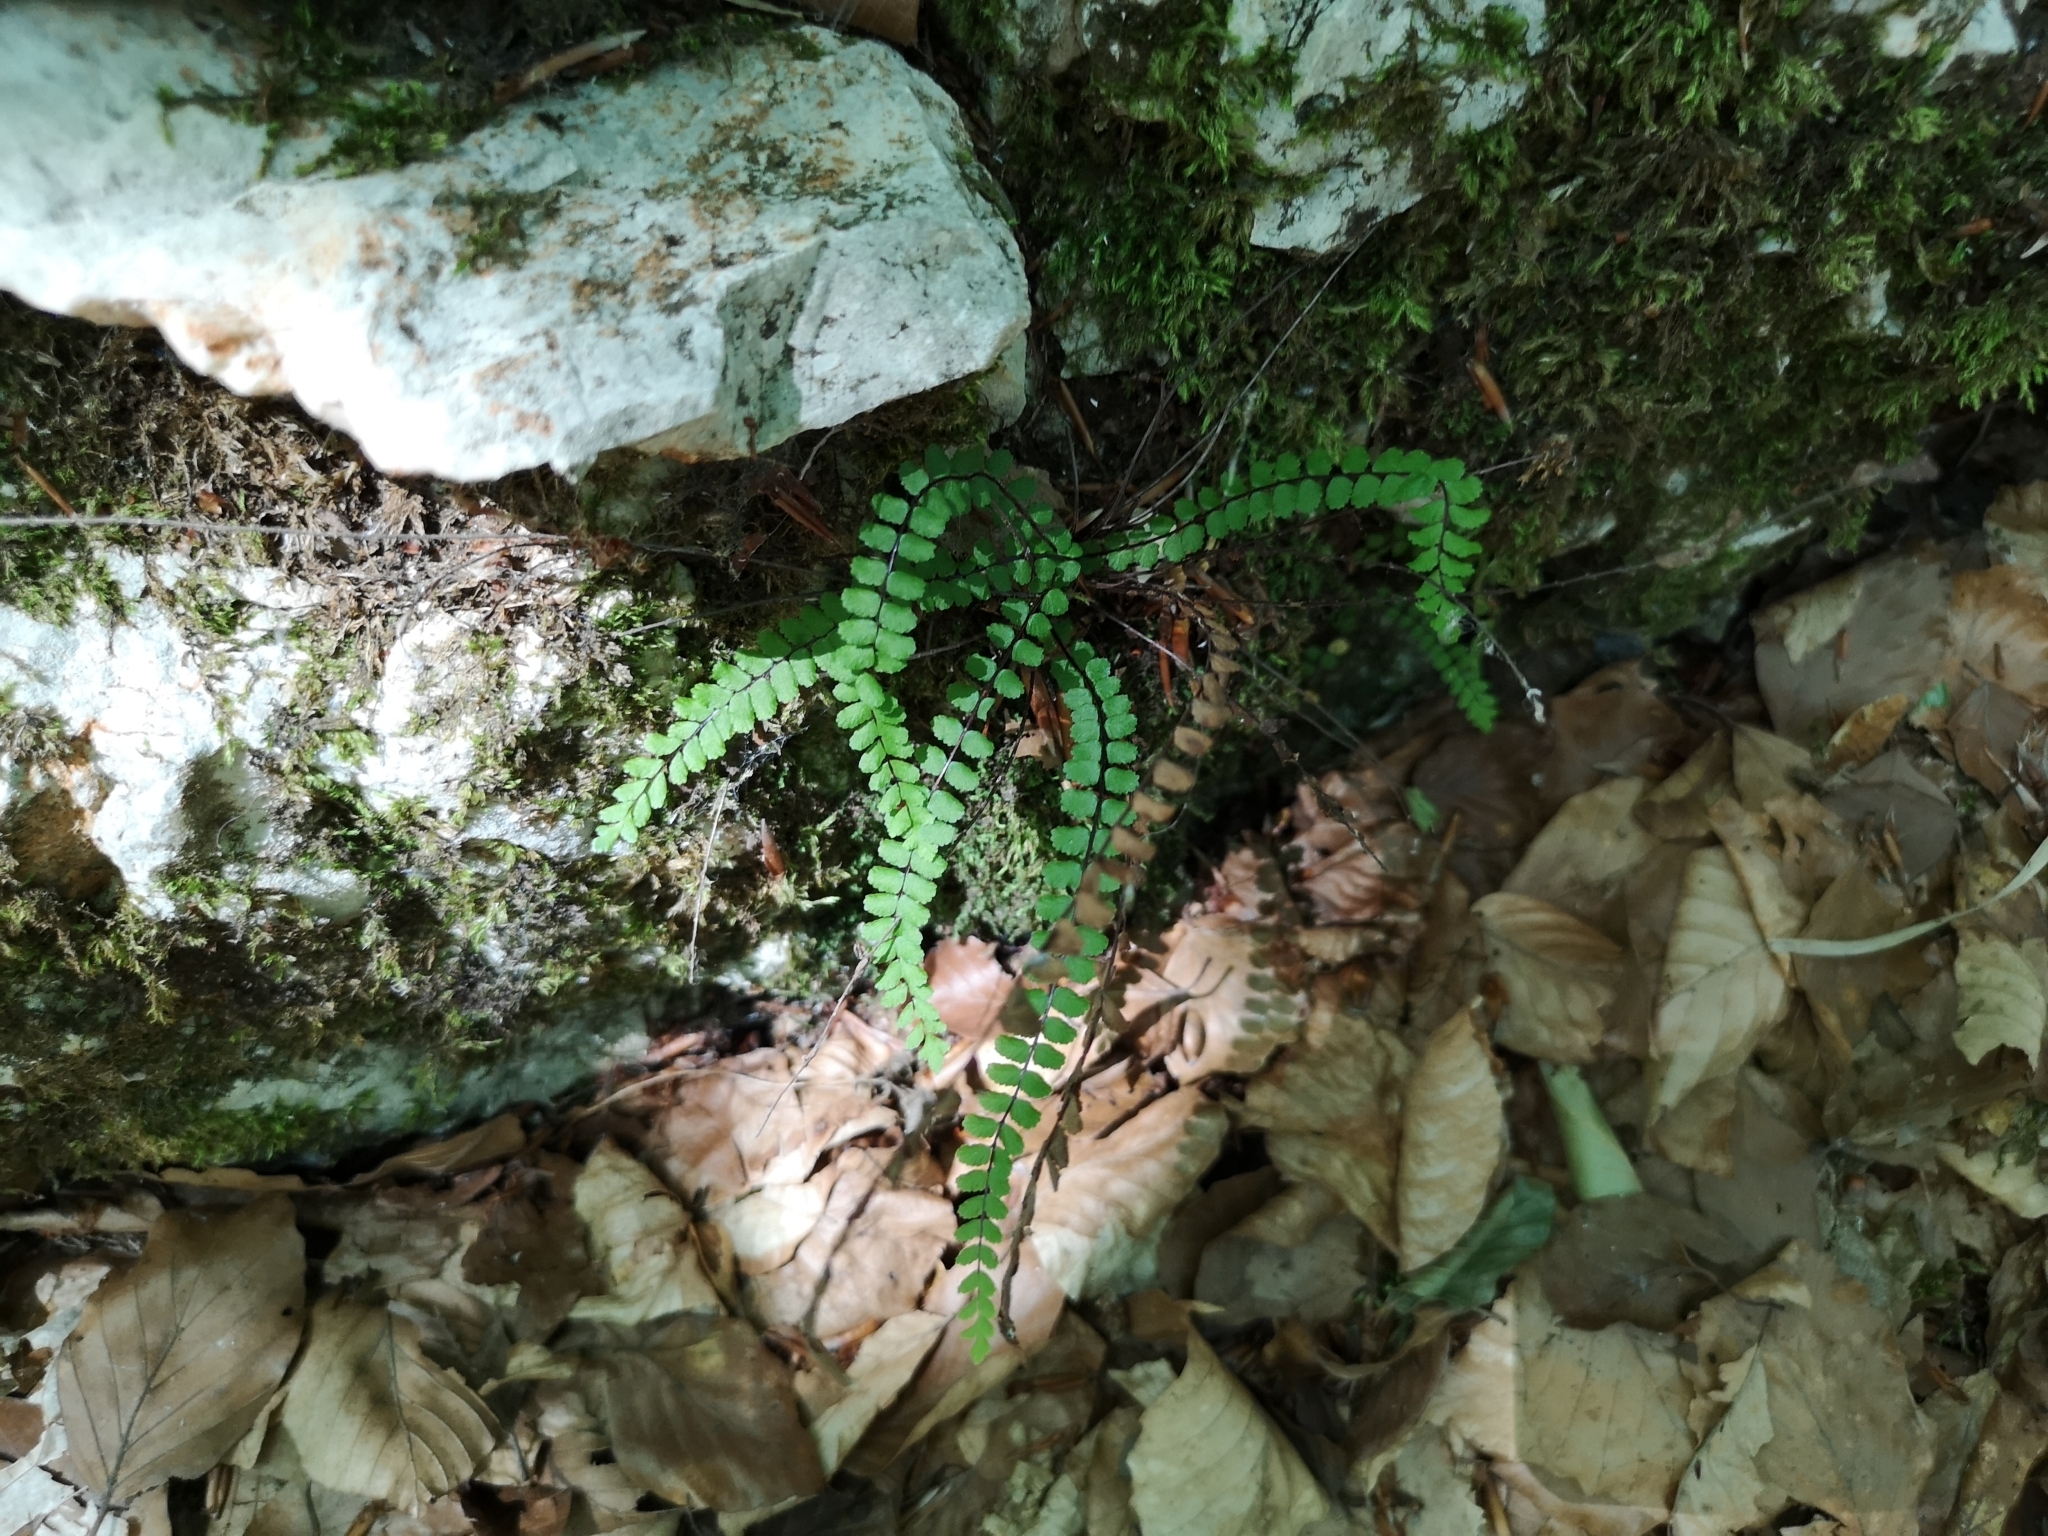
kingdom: Plantae
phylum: Tracheophyta
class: Polypodiopsida
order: Polypodiales
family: Aspleniaceae
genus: Asplenium
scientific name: Asplenium trichomanes
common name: Maidenhair spleenwort
